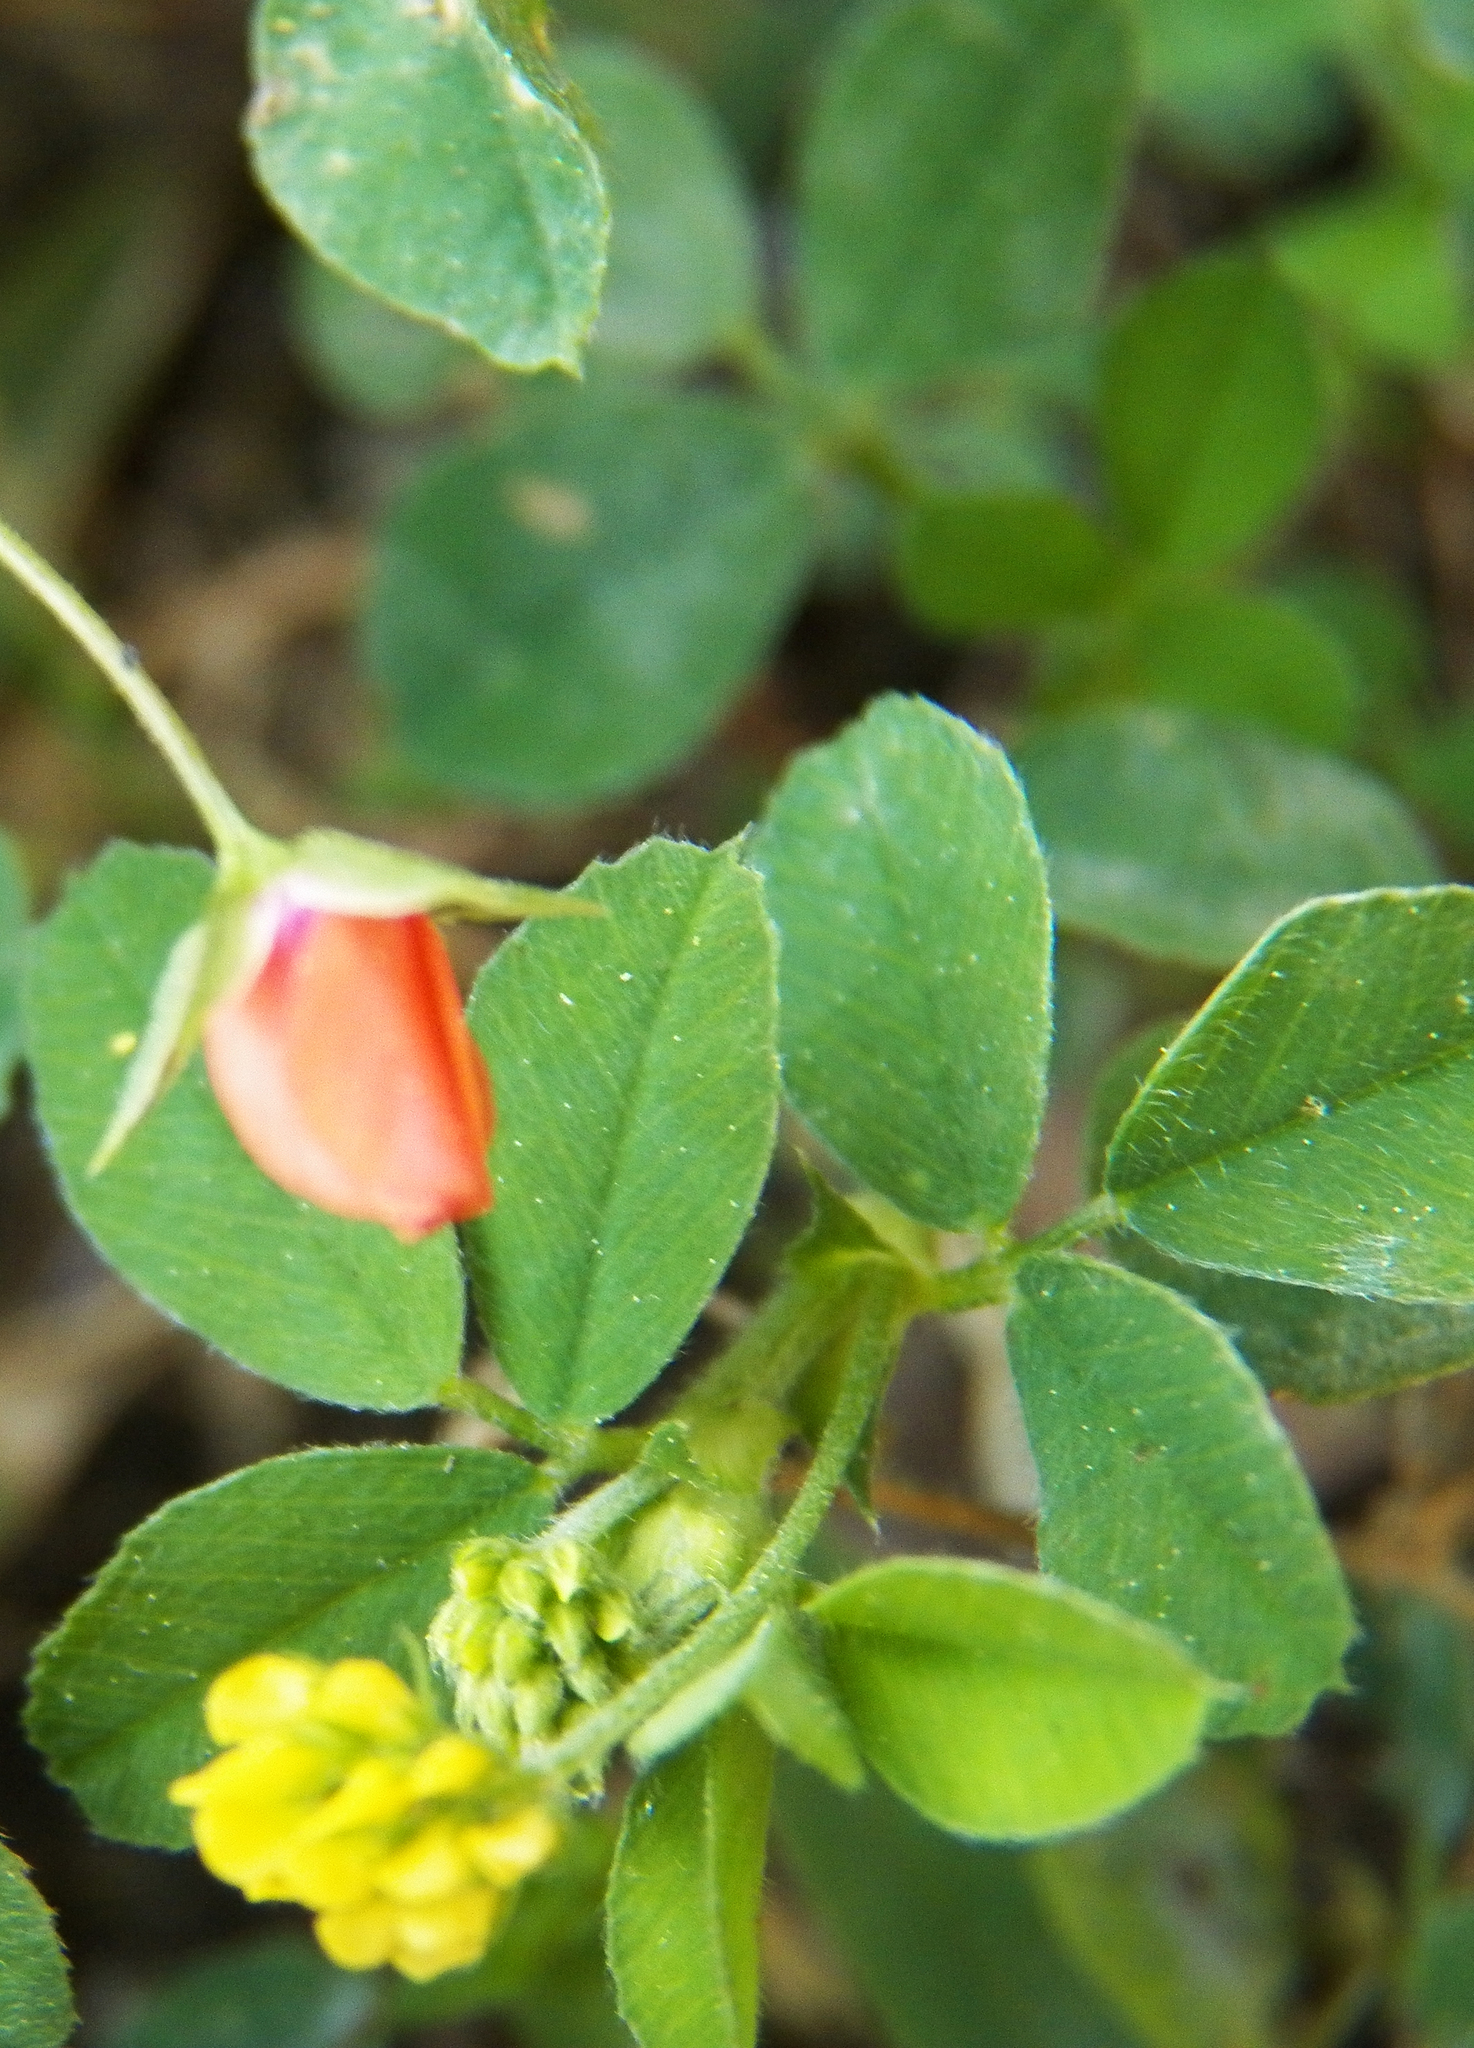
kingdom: Plantae
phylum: Tracheophyta
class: Magnoliopsida
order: Fabales
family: Fabaceae
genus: Medicago
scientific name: Medicago lupulina
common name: Black medick
